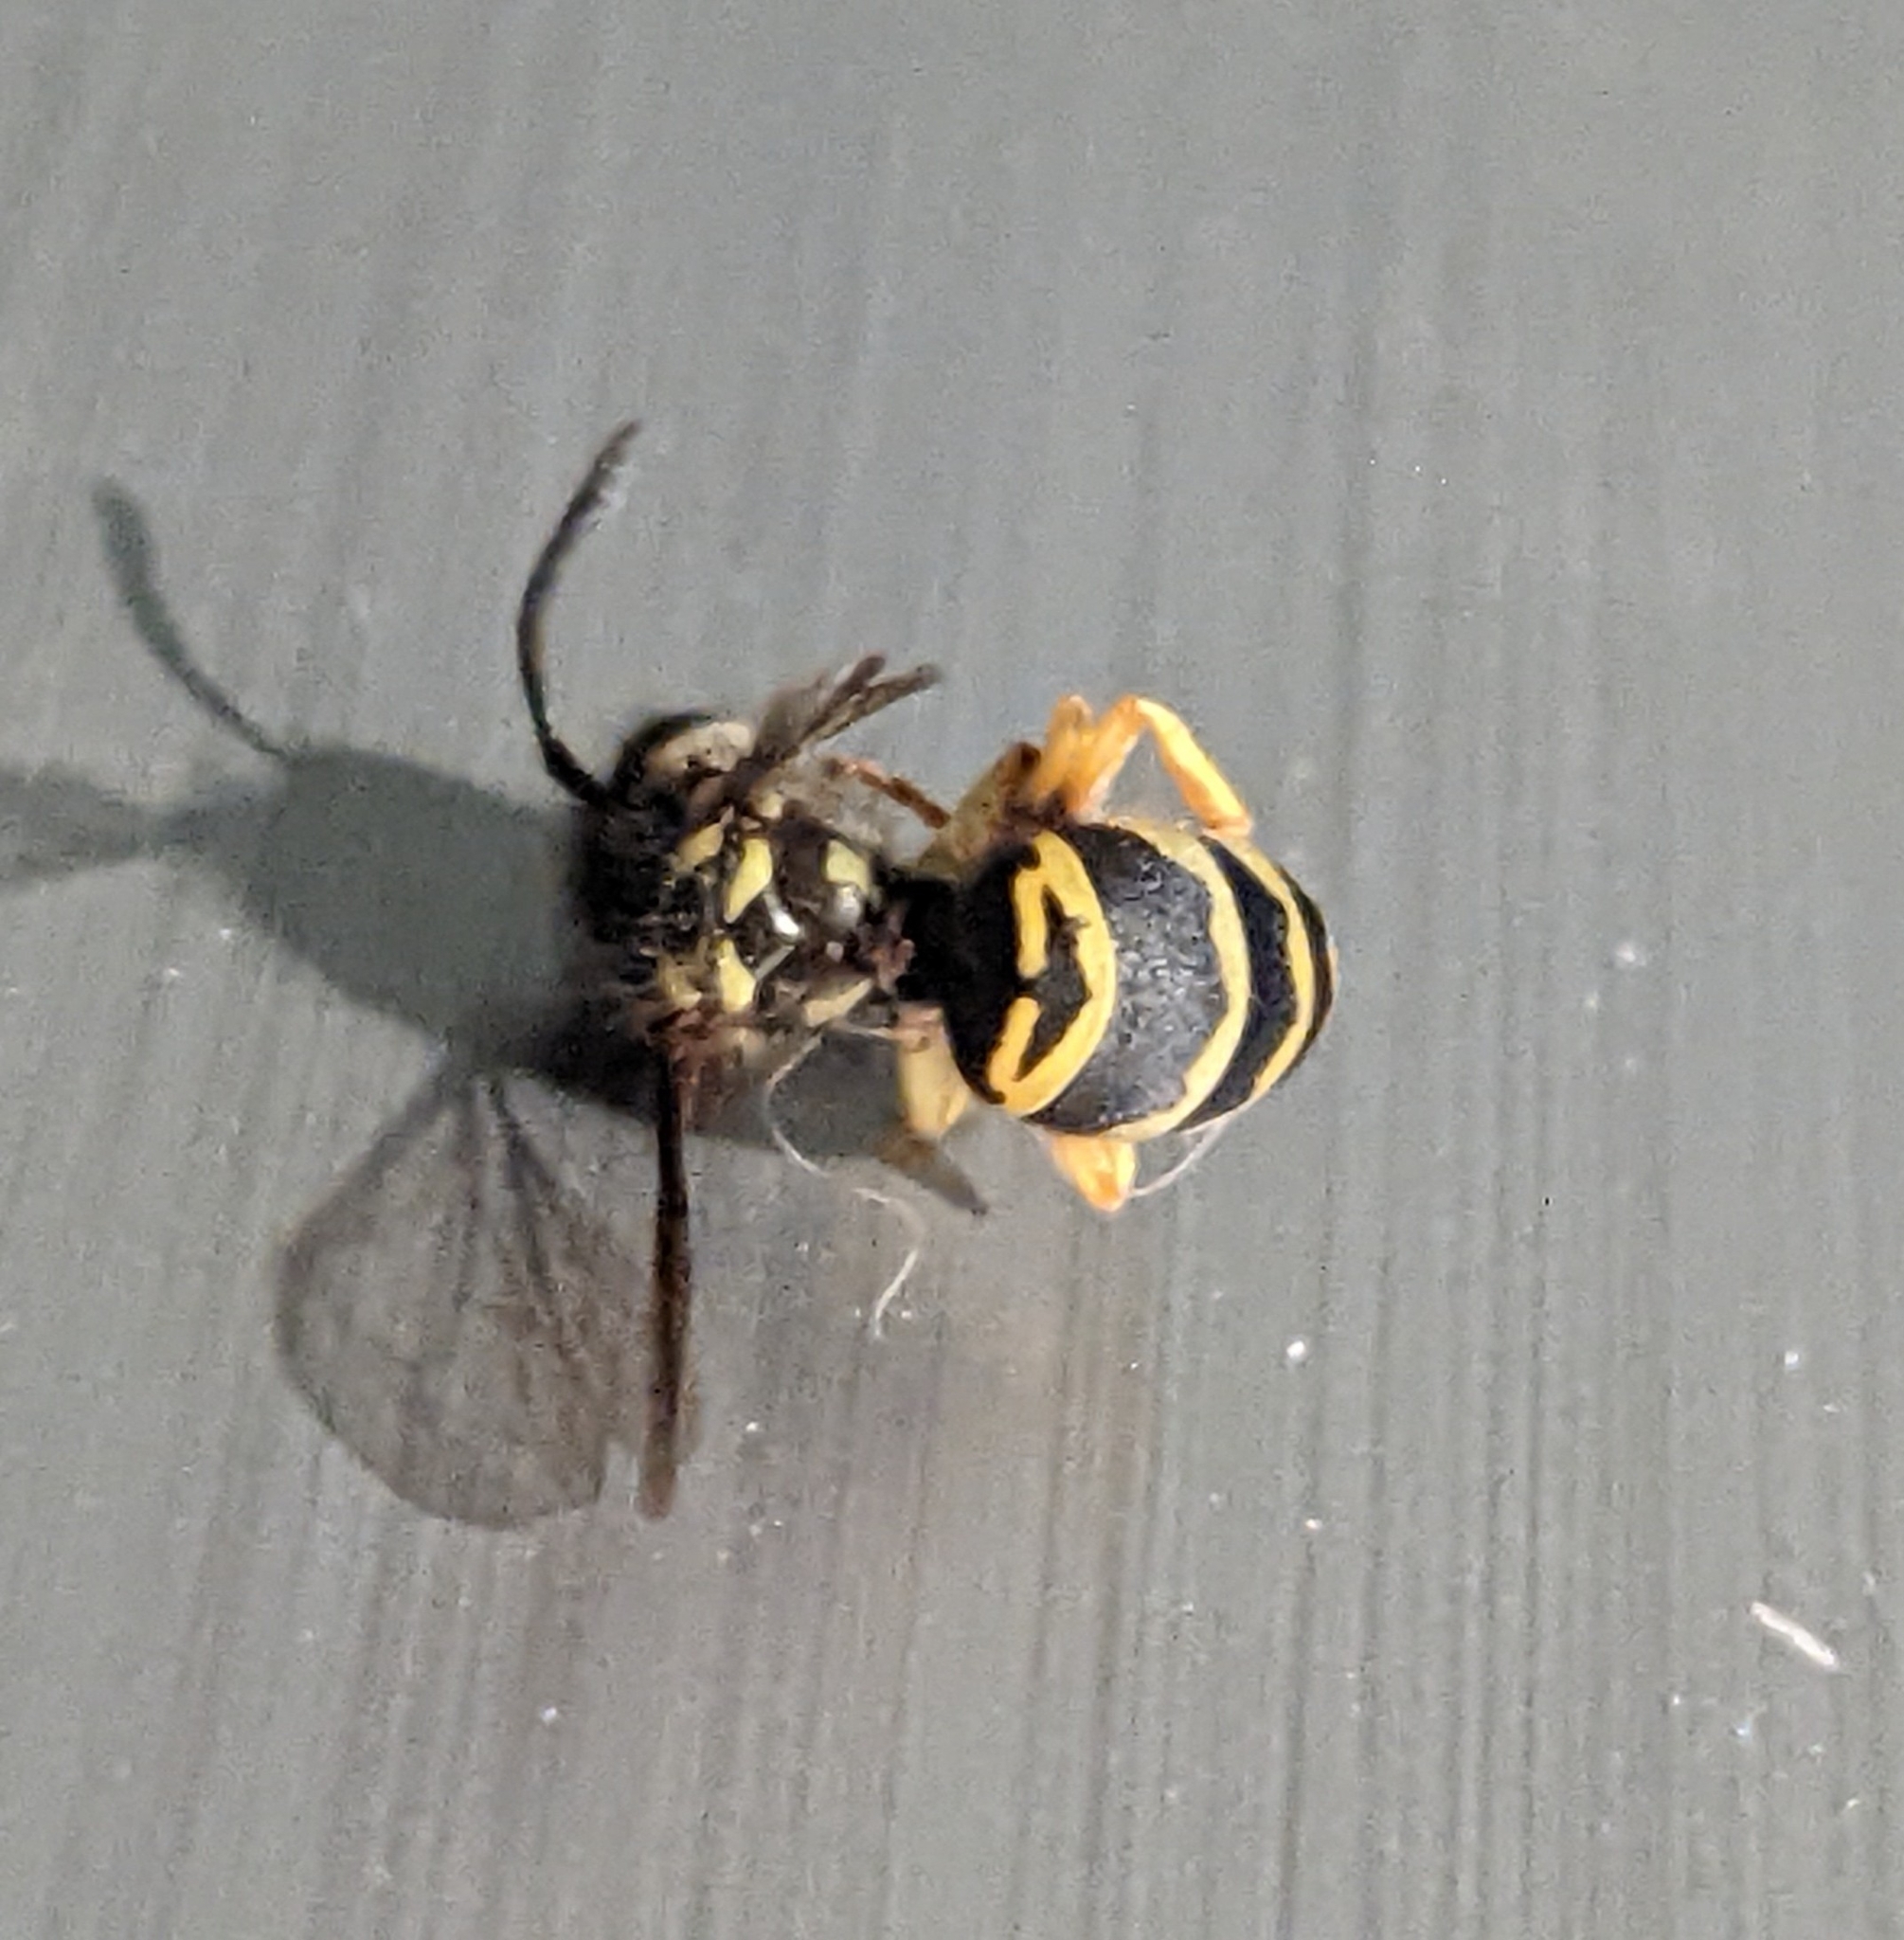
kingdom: Animalia
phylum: Arthropoda
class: Insecta
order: Hymenoptera
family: Vespidae
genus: Vespula
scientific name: Vespula maculifrons
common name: Eastern yellowjacket
